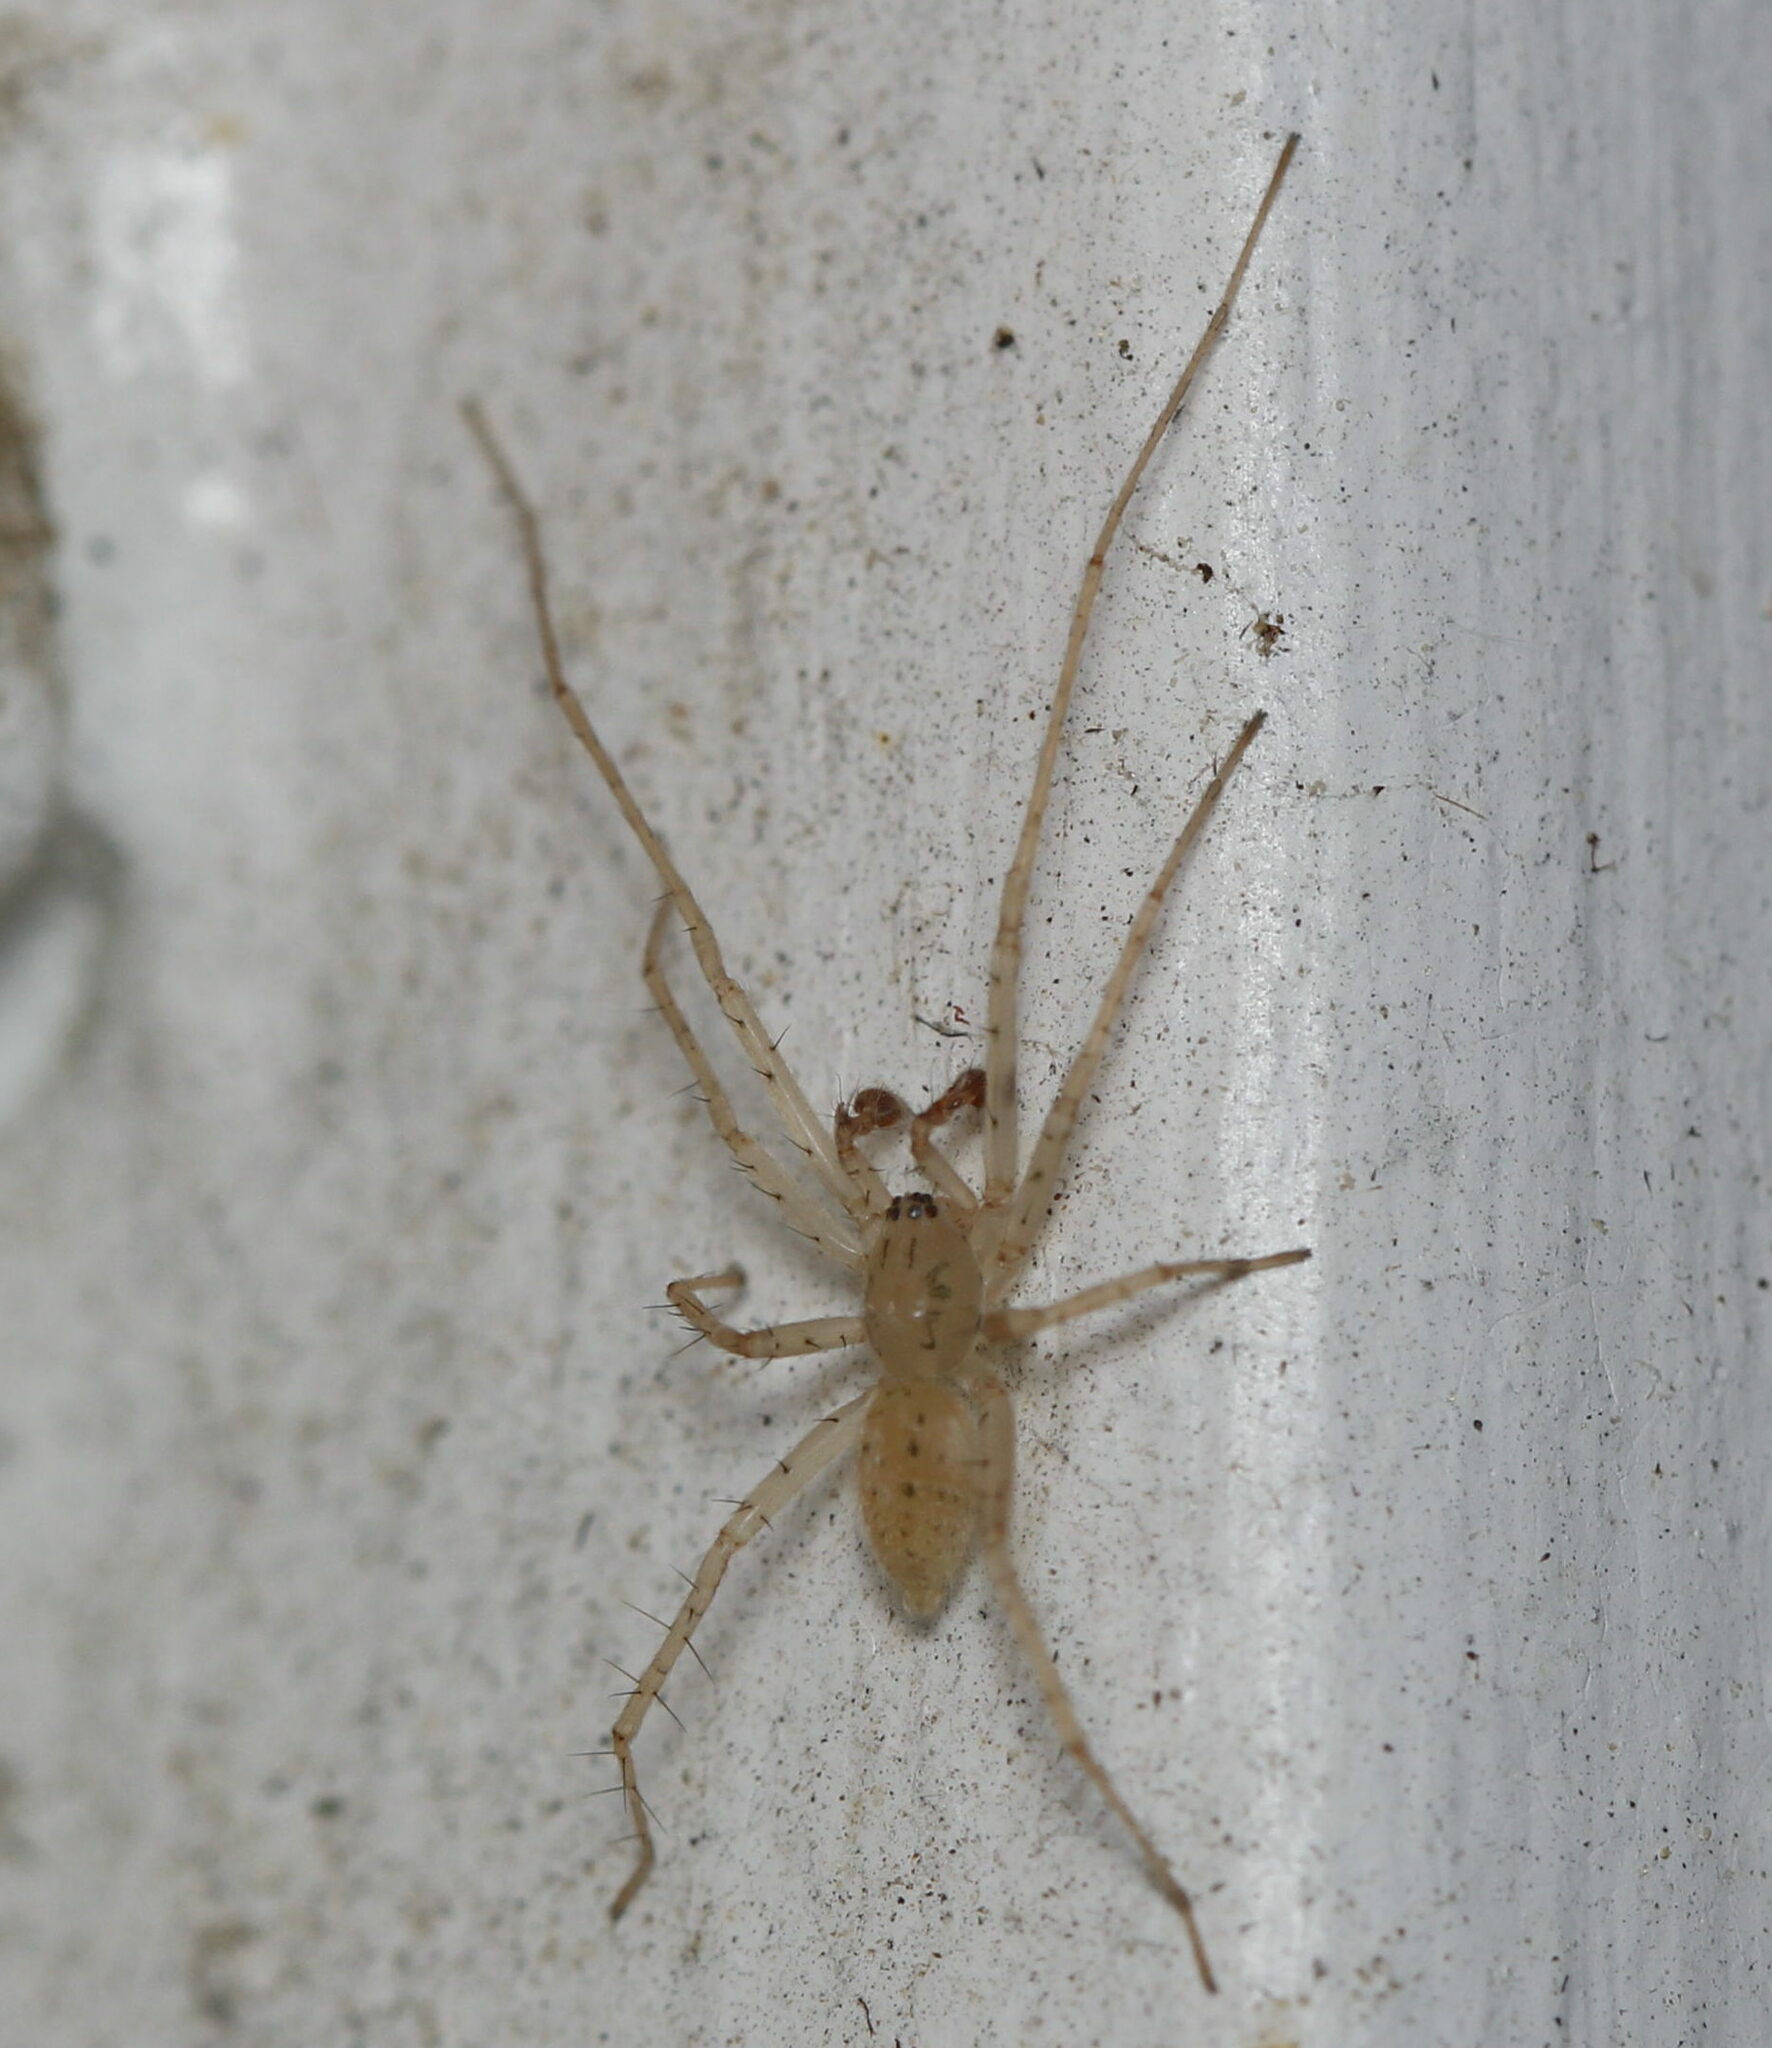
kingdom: Animalia
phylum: Arthropoda
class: Arachnida
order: Araneae
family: Anyphaenidae
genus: Wulfila
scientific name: Wulfila saltabundus
